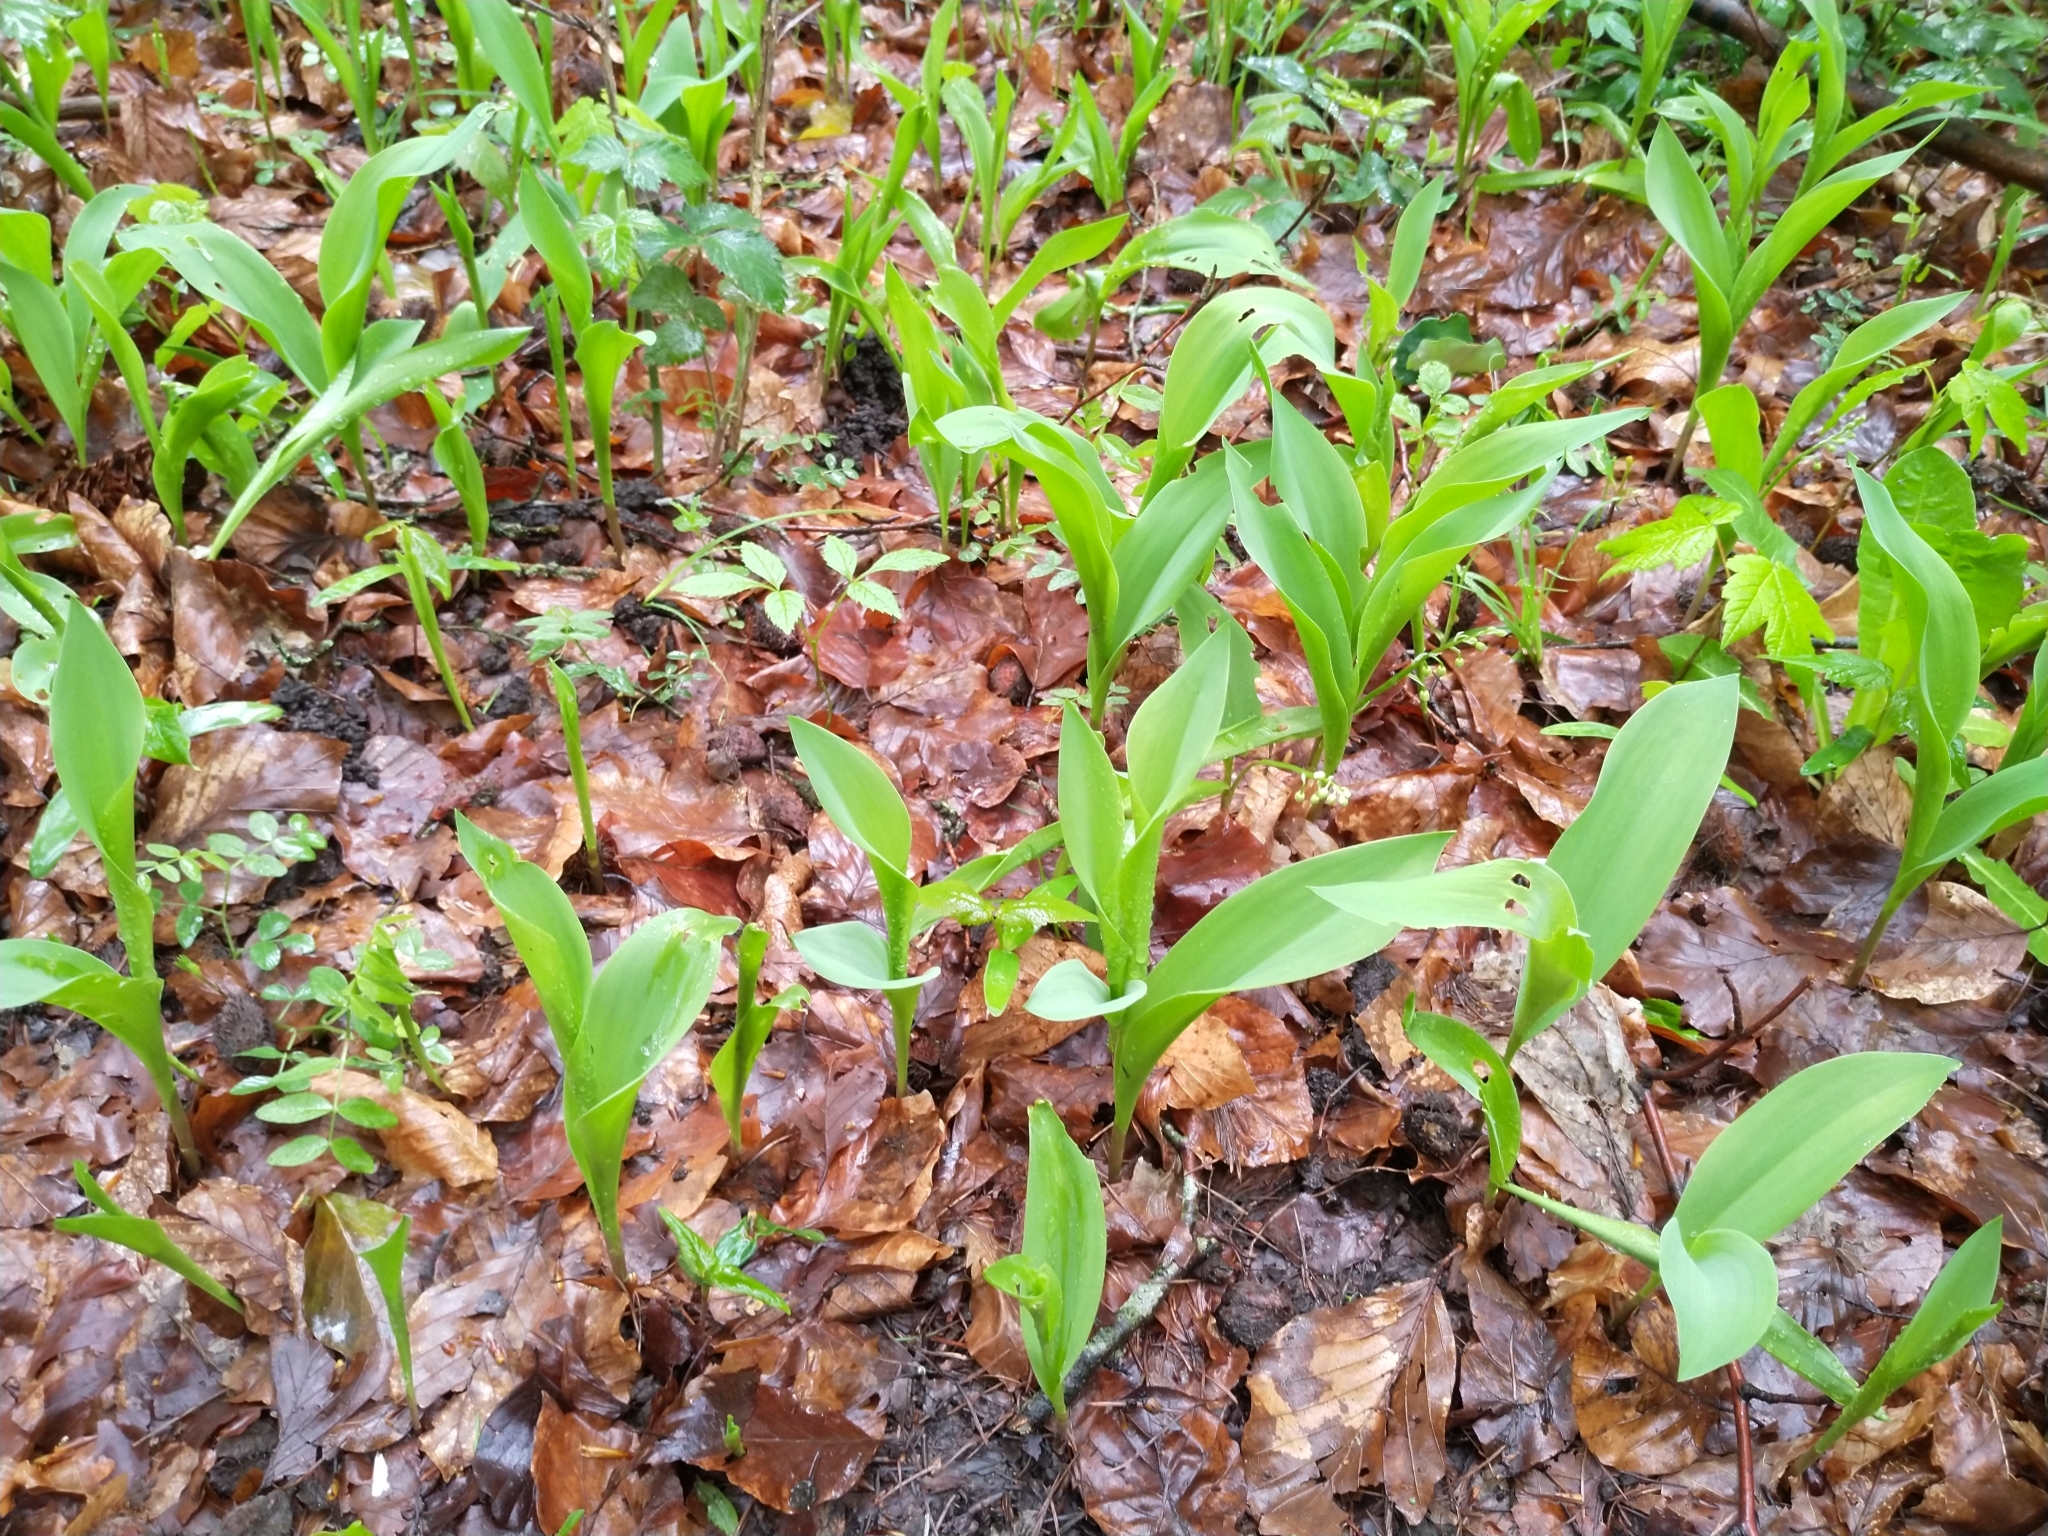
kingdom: Plantae
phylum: Tracheophyta
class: Liliopsida
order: Asparagales
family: Asparagaceae
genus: Convallaria
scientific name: Convallaria majalis
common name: Lily-of-the-valley
